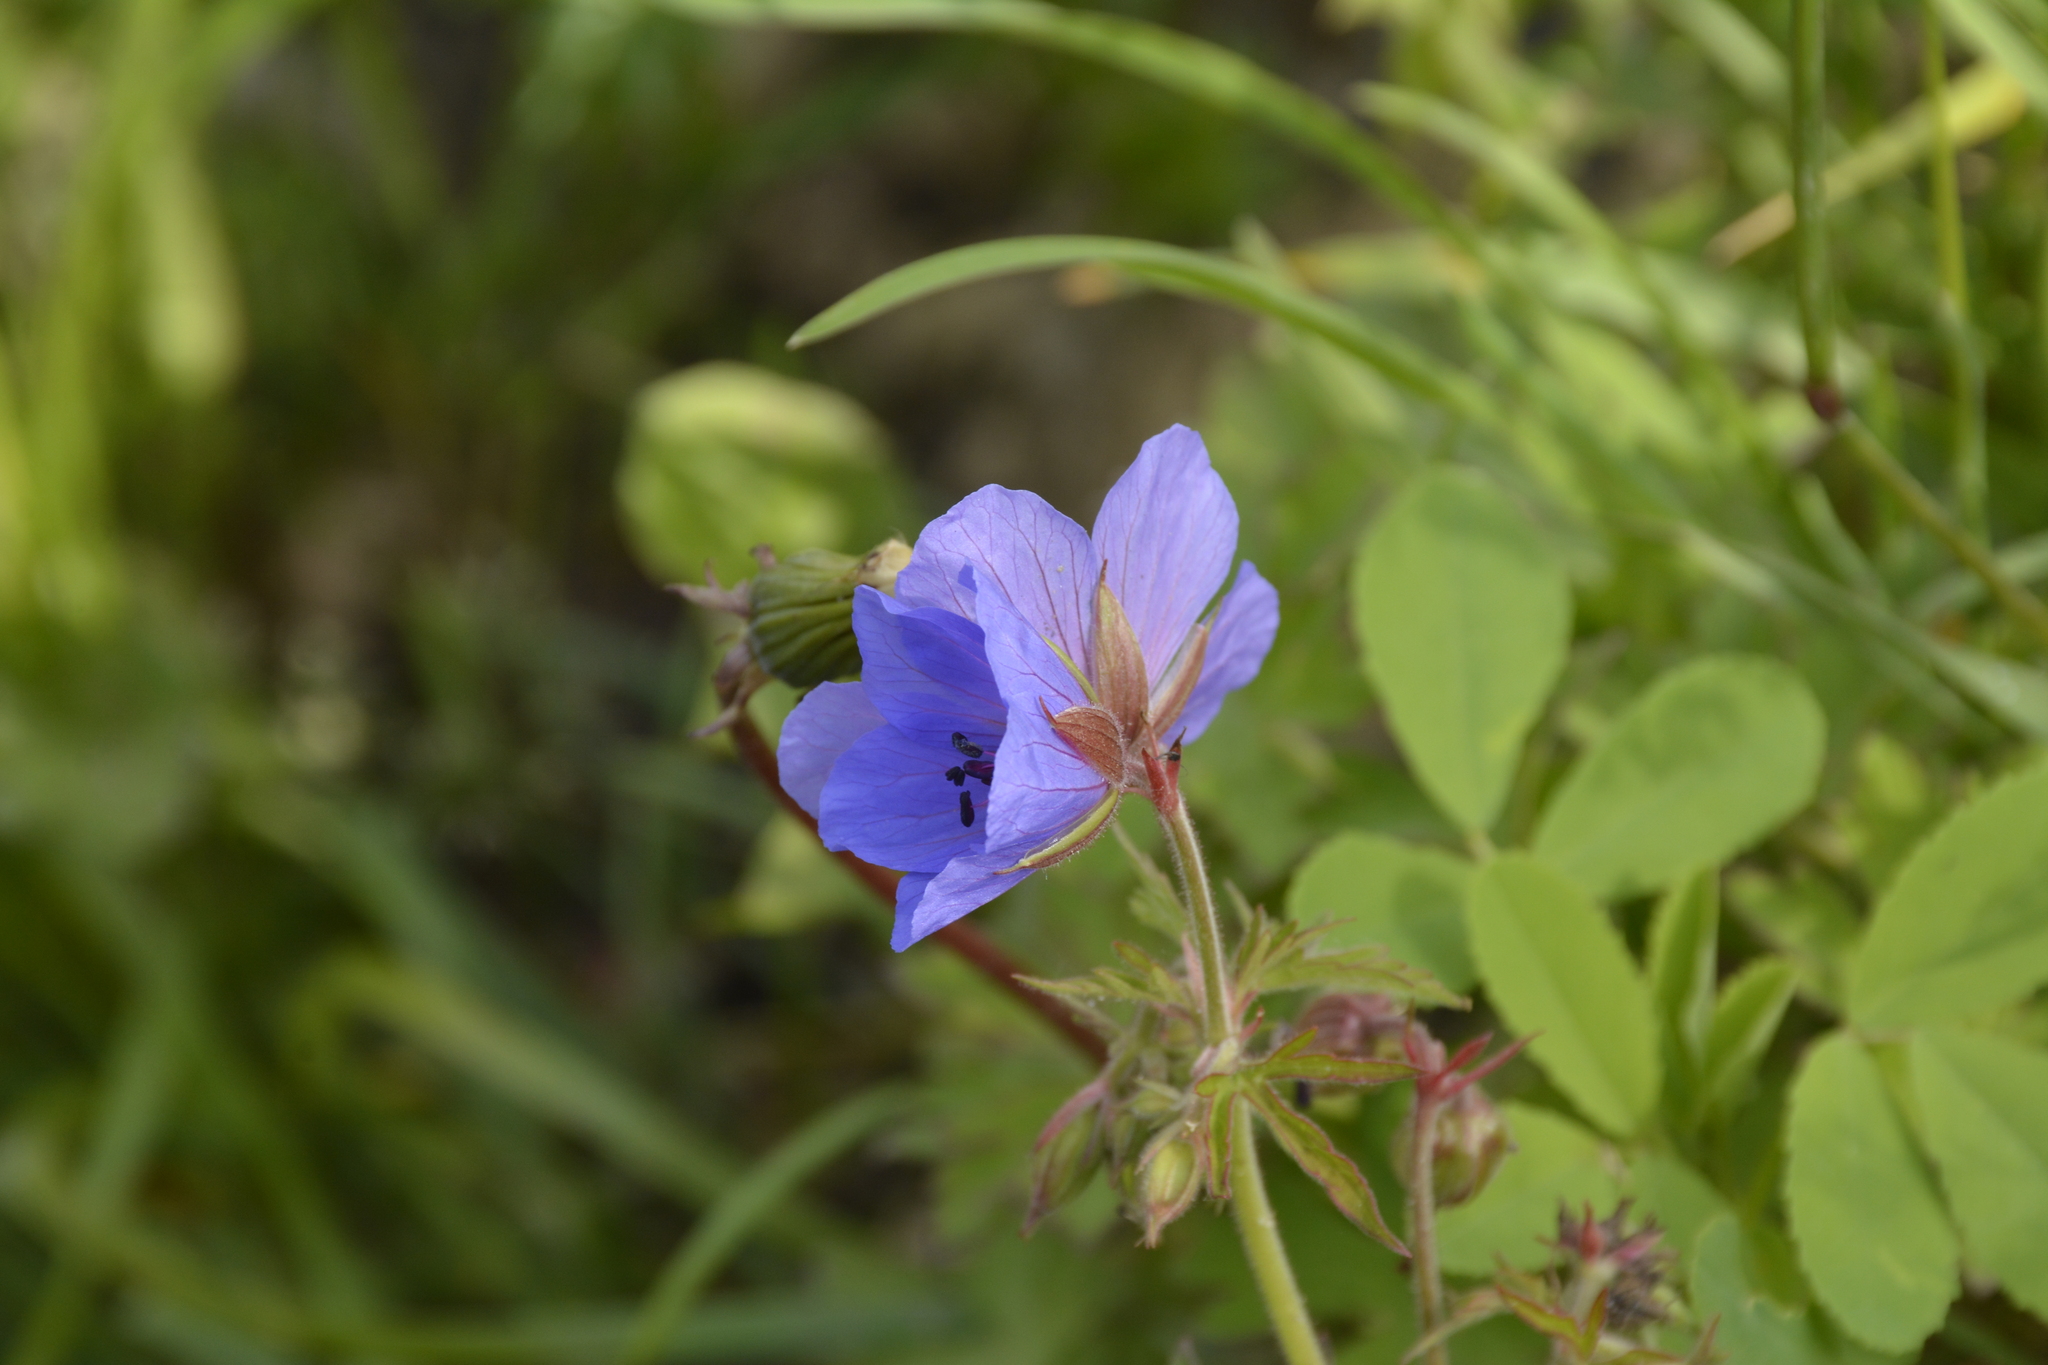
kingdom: Plantae
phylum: Tracheophyta
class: Magnoliopsida
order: Geraniales
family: Geraniaceae
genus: Geranium
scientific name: Geranium pratense
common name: Meadow crane's-bill
